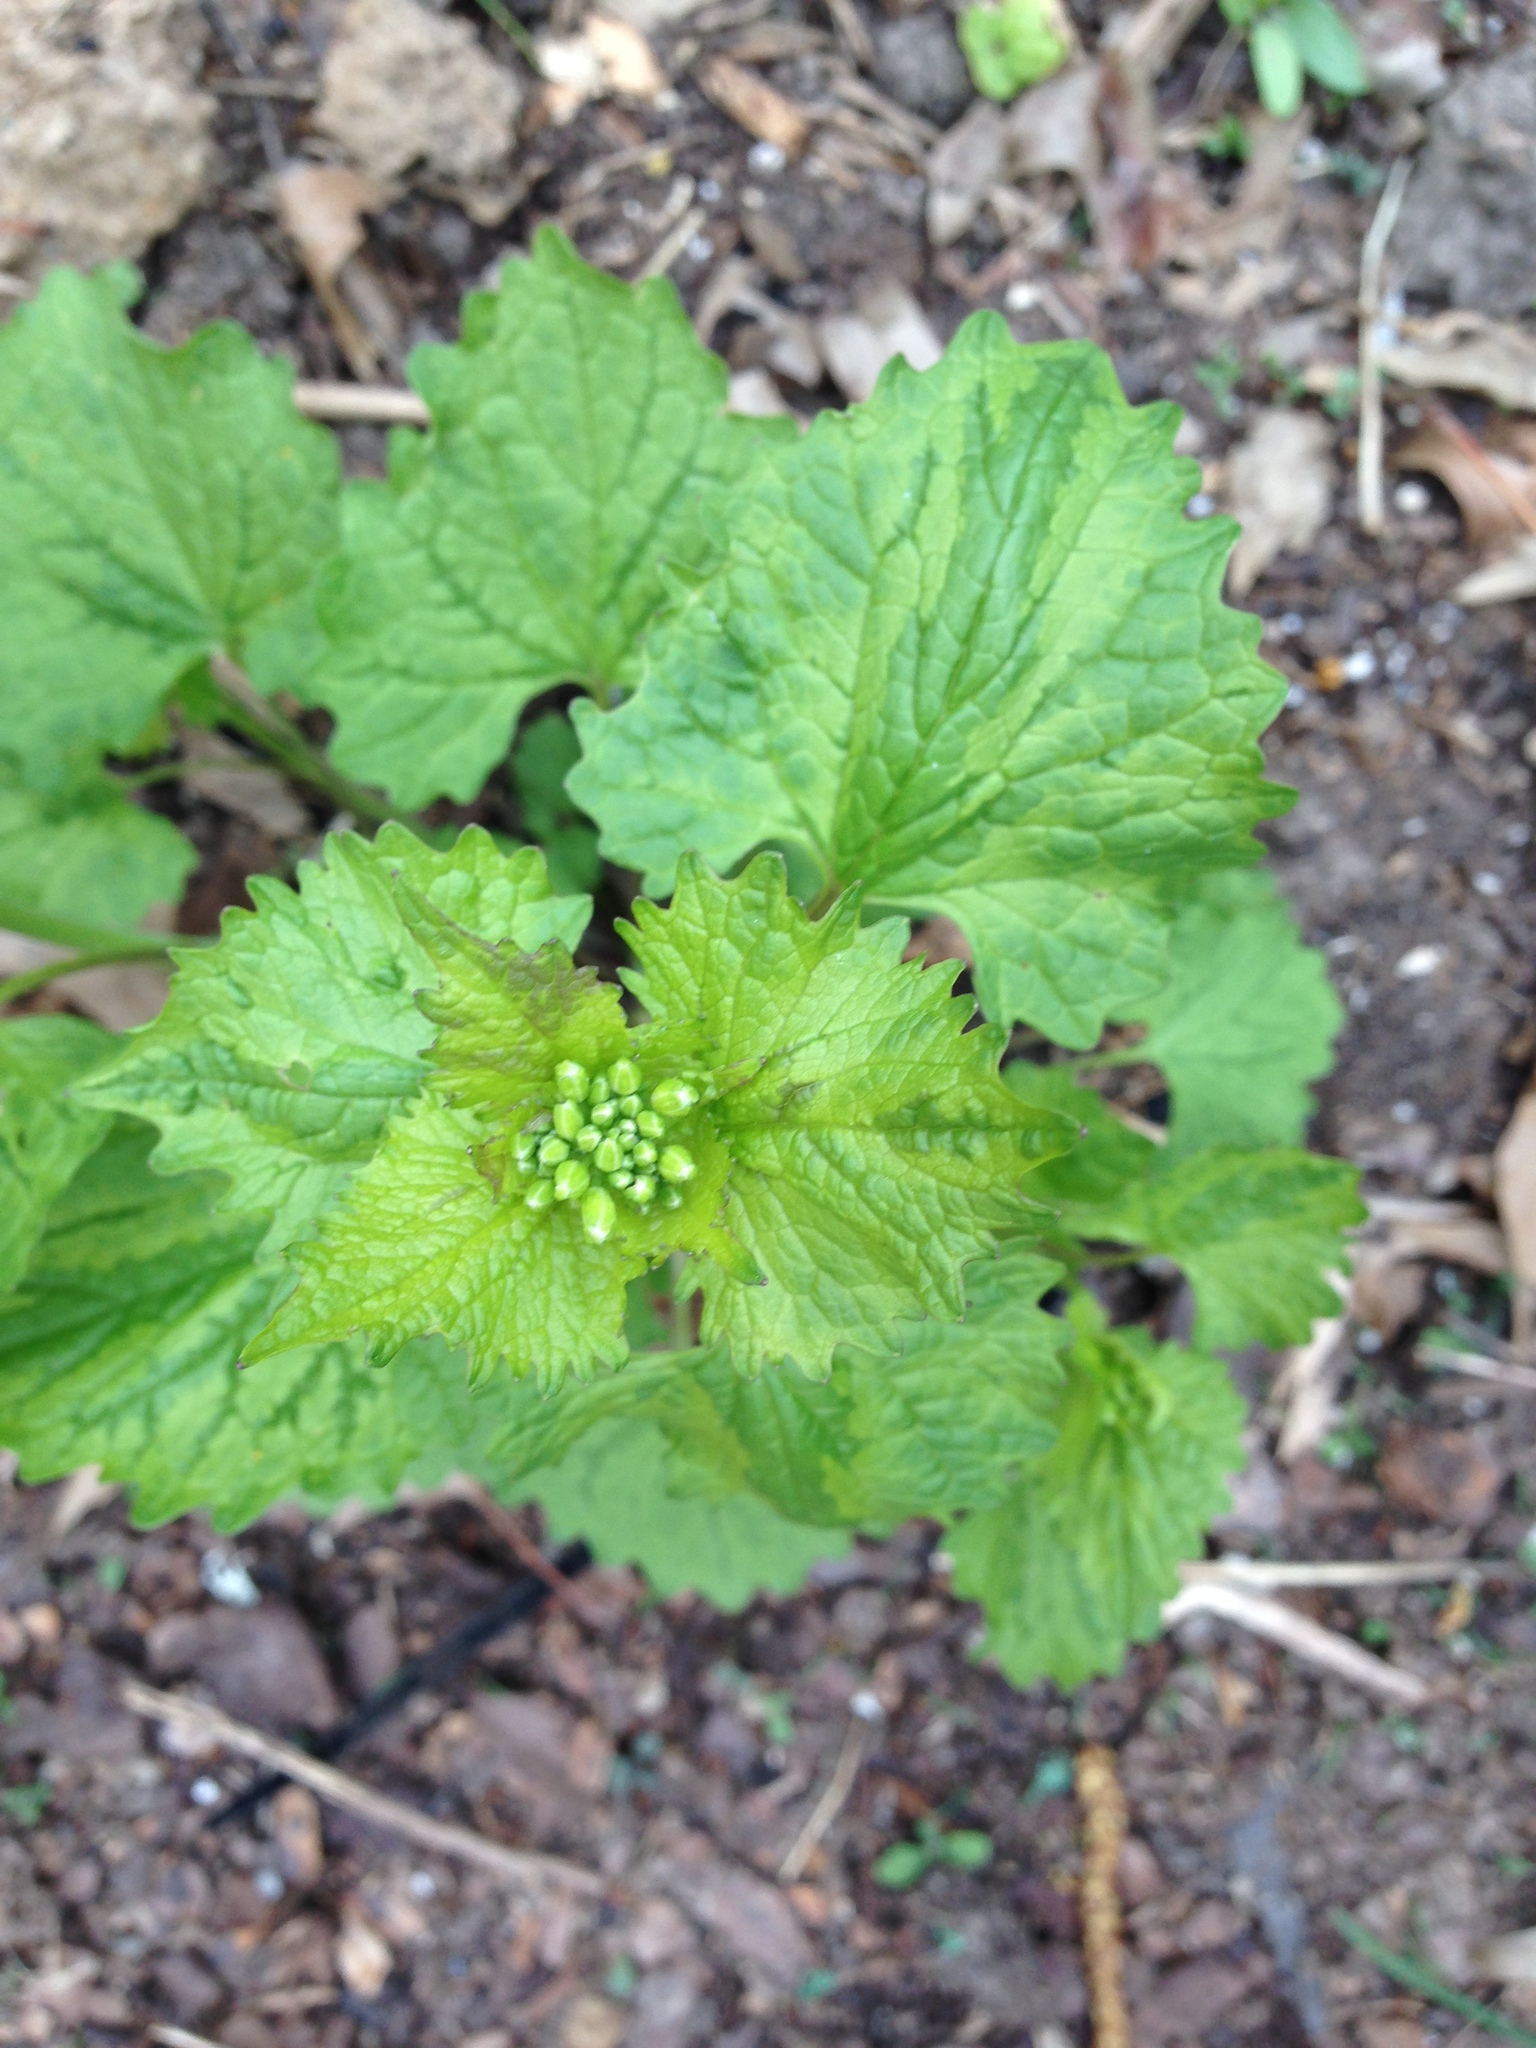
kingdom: Plantae
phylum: Tracheophyta
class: Magnoliopsida
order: Brassicales
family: Brassicaceae
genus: Alliaria
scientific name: Alliaria petiolata
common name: Garlic mustard
